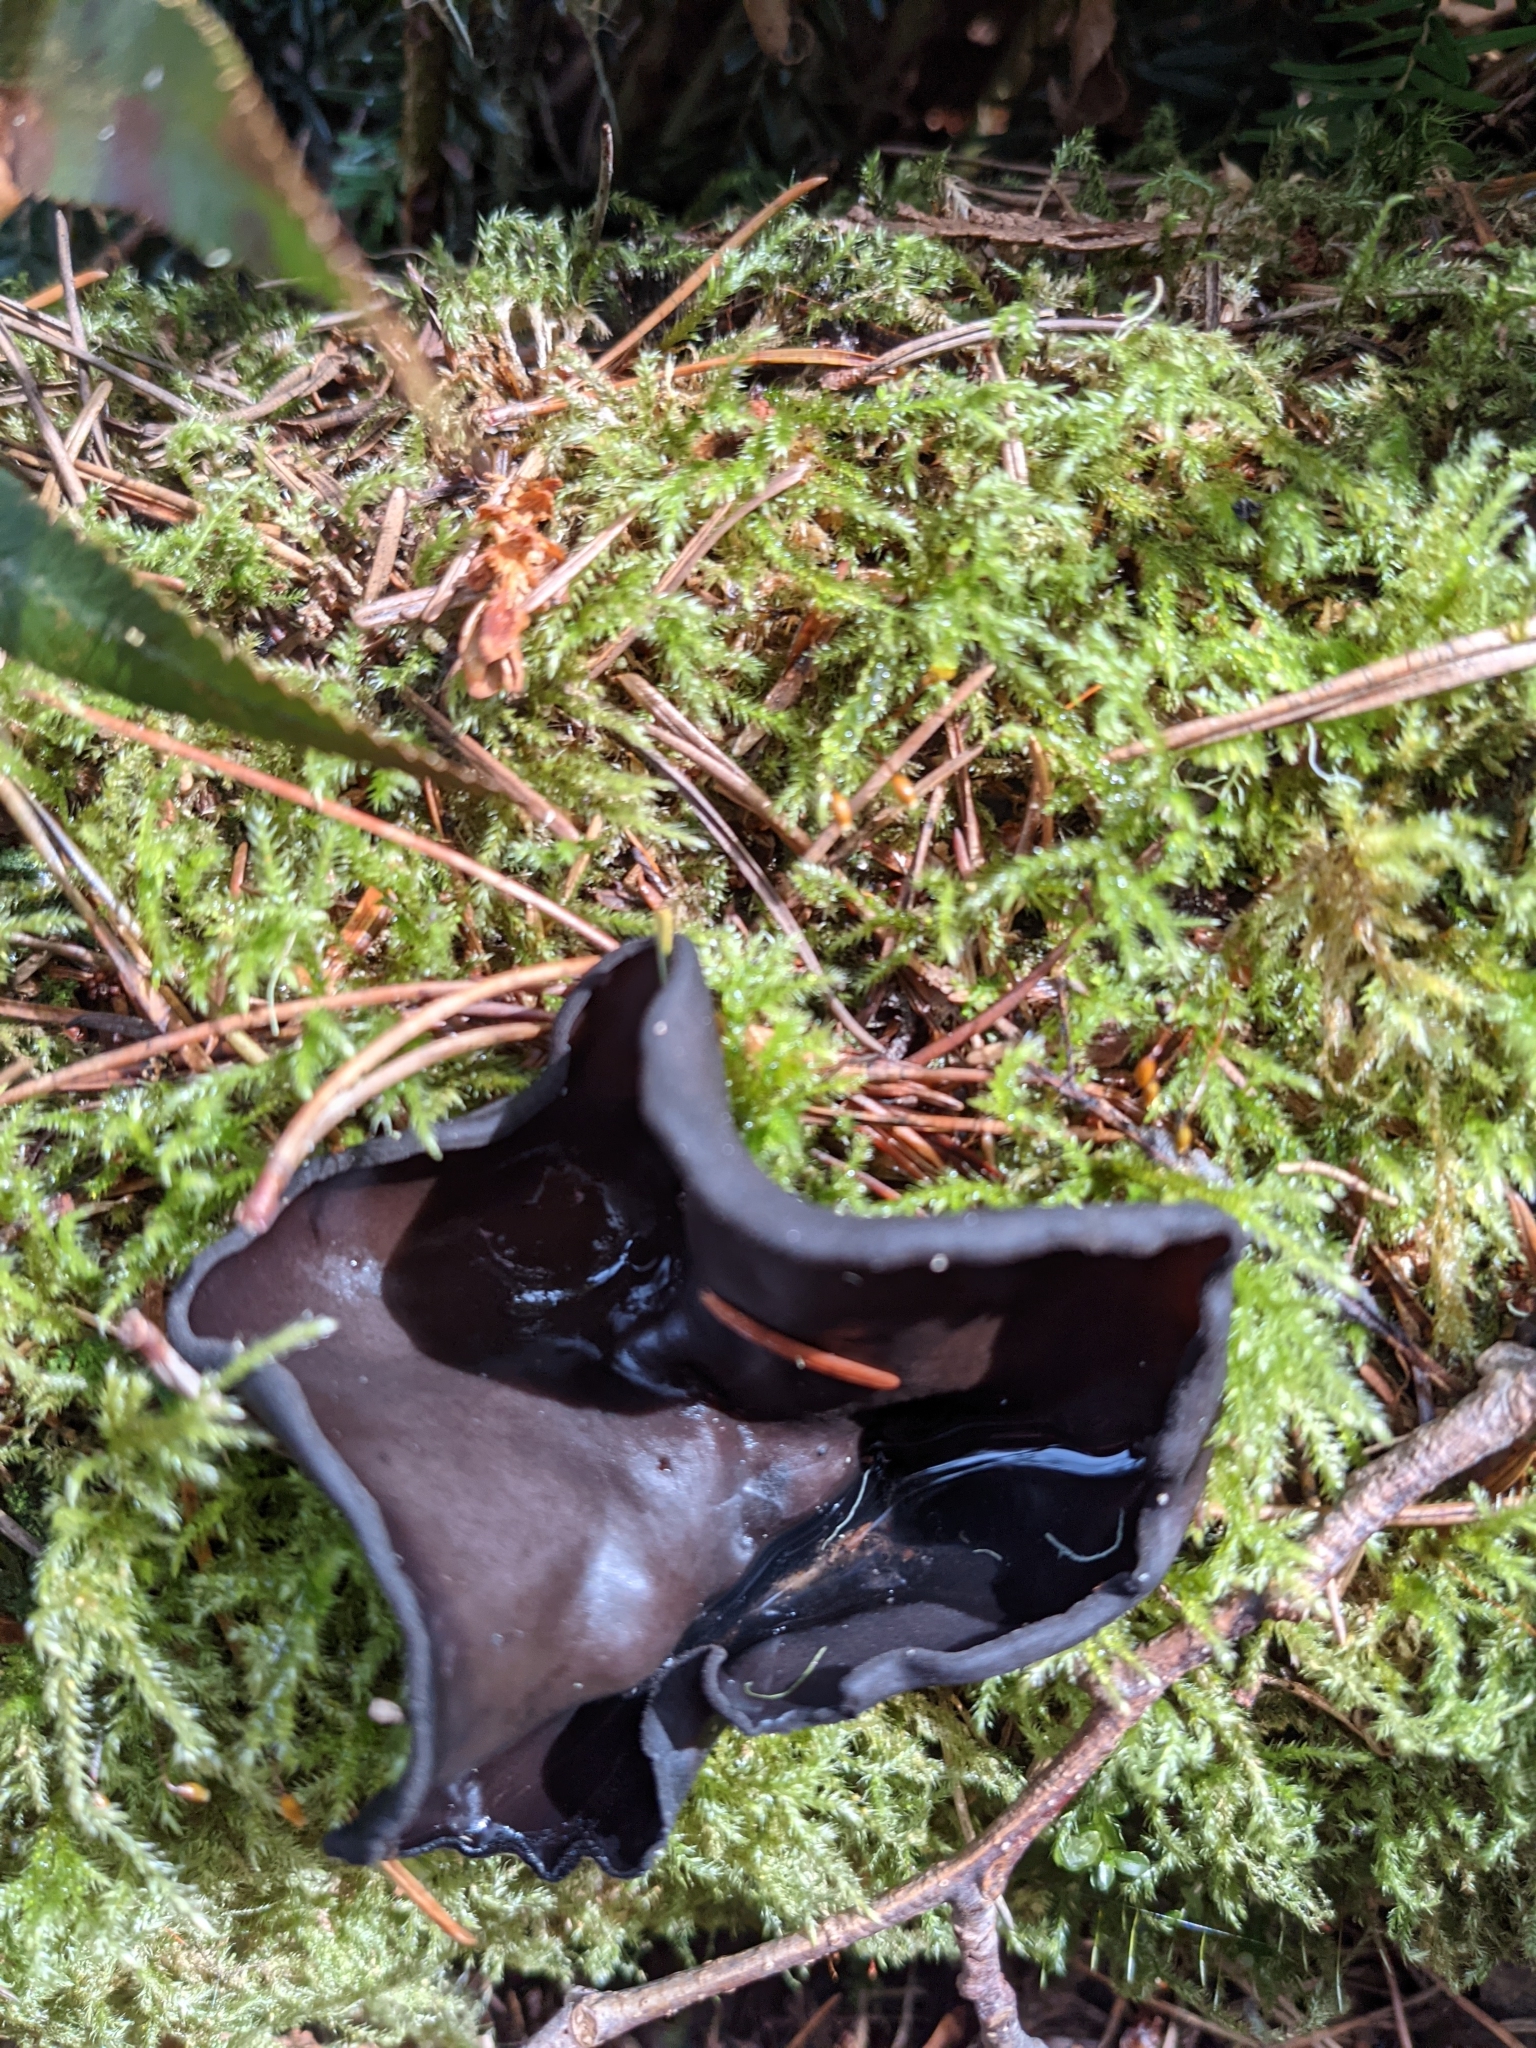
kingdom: Fungi
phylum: Ascomycota
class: Pezizomycetes
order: Pezizales
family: Sarcosomataceae
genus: Pseudoplectania
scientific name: Pseudoplectania melaena
